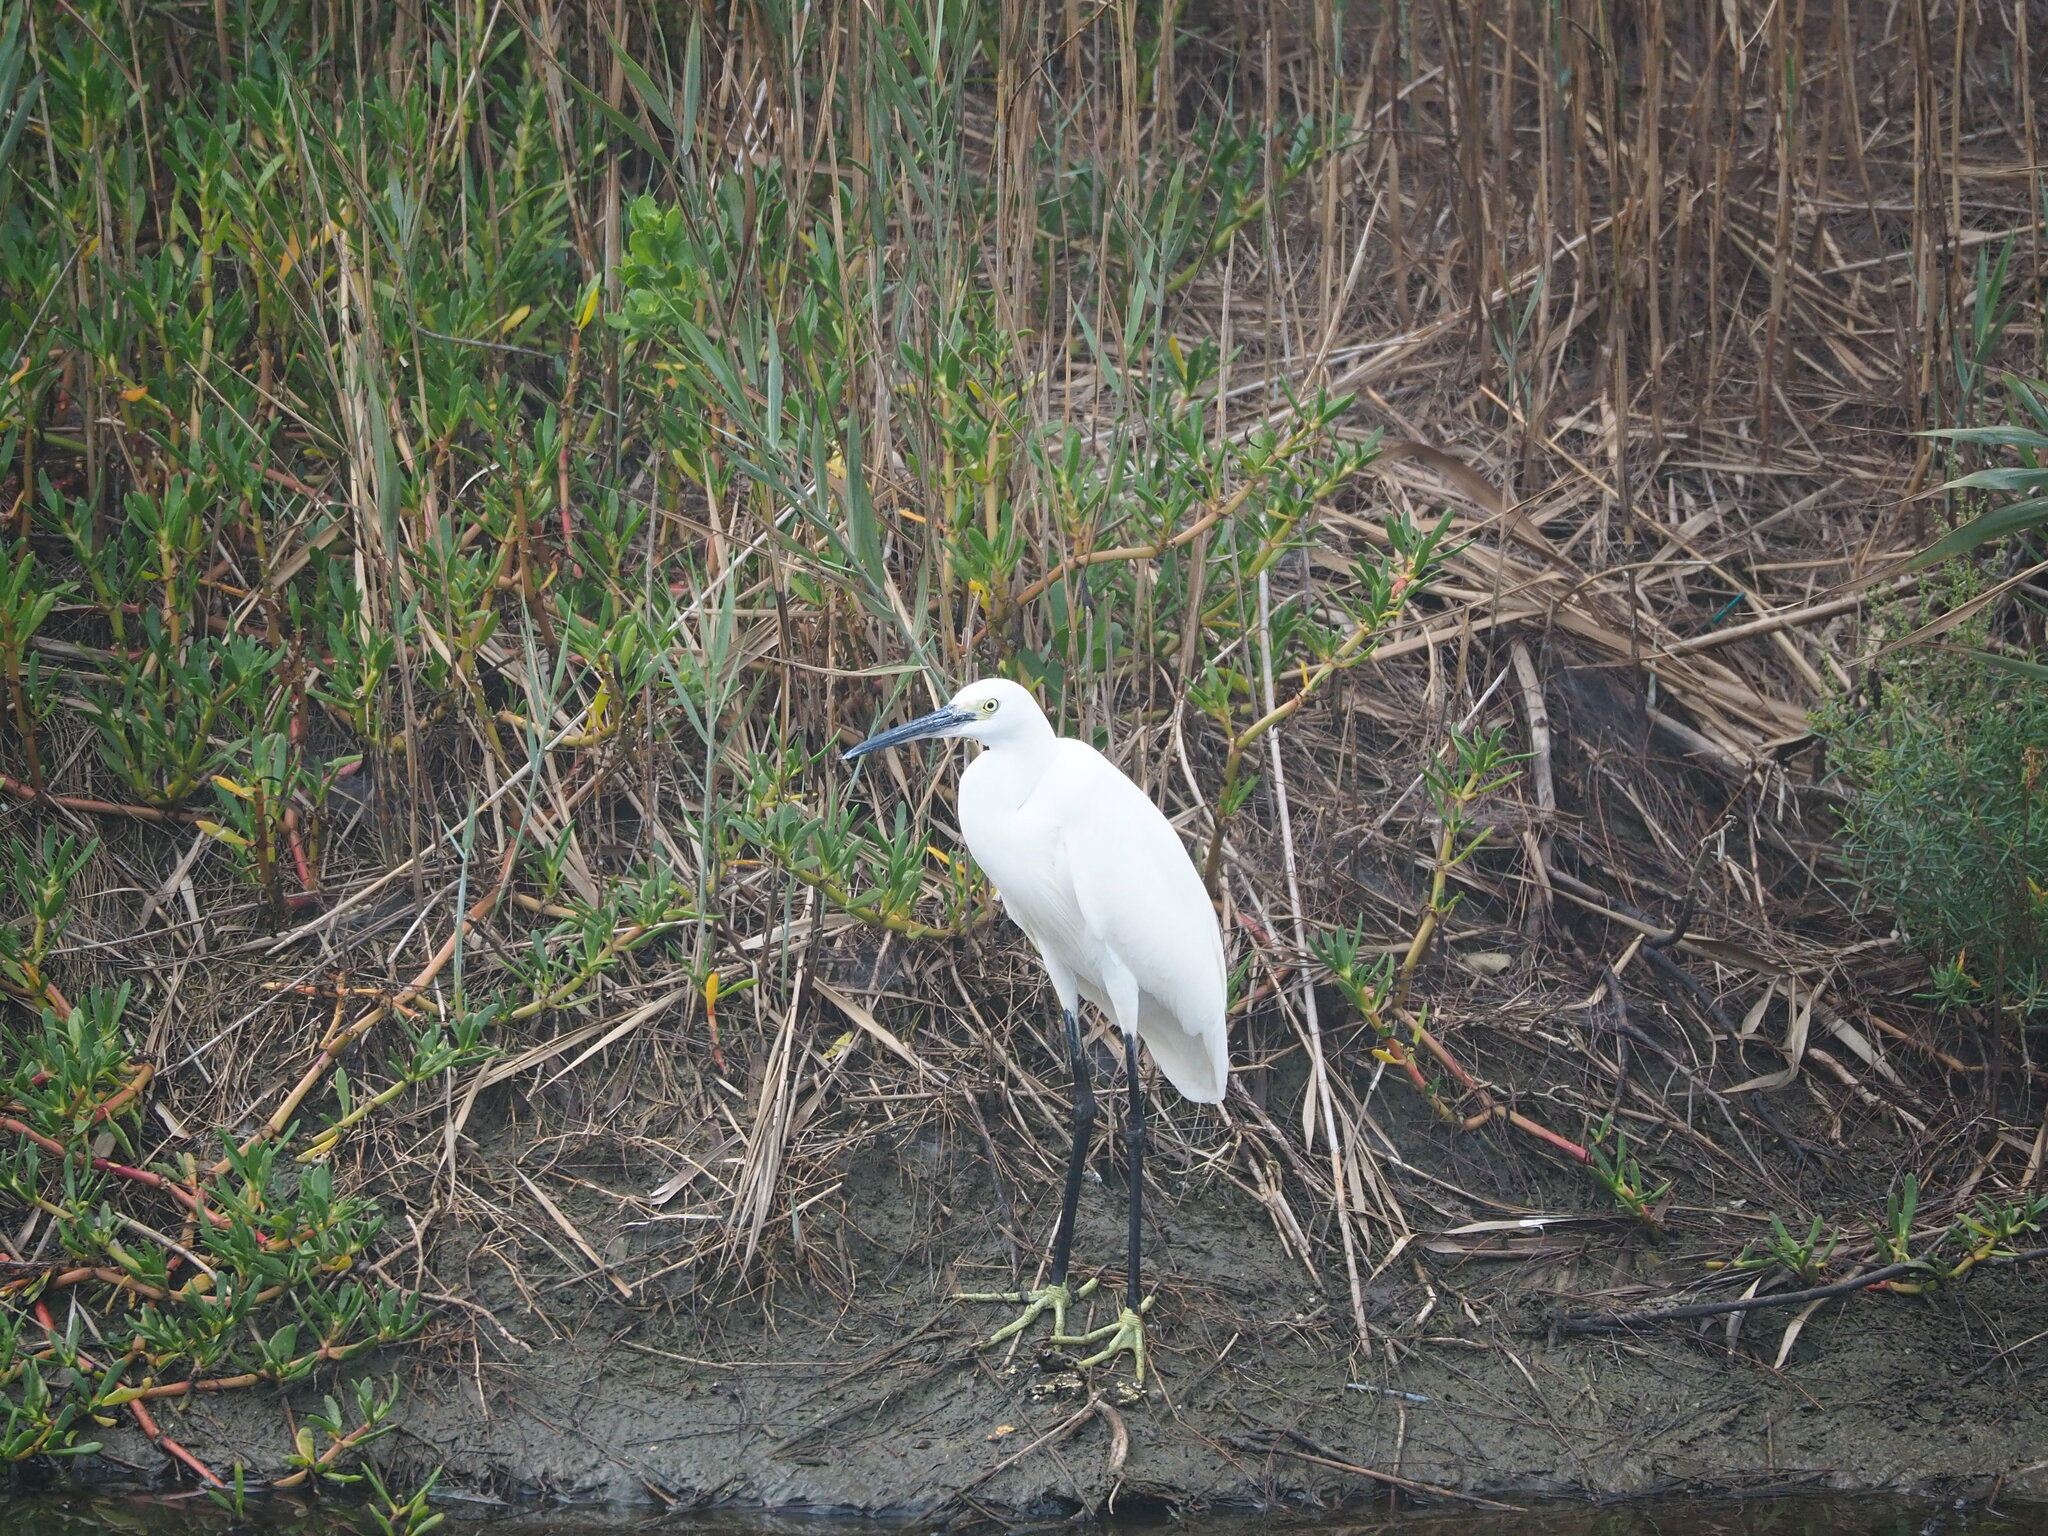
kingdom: Animalia
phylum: Chordata
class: Aves
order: Pelecaniformes
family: Ardeidae
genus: Egretta
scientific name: Egretta garzetta
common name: Little egret
